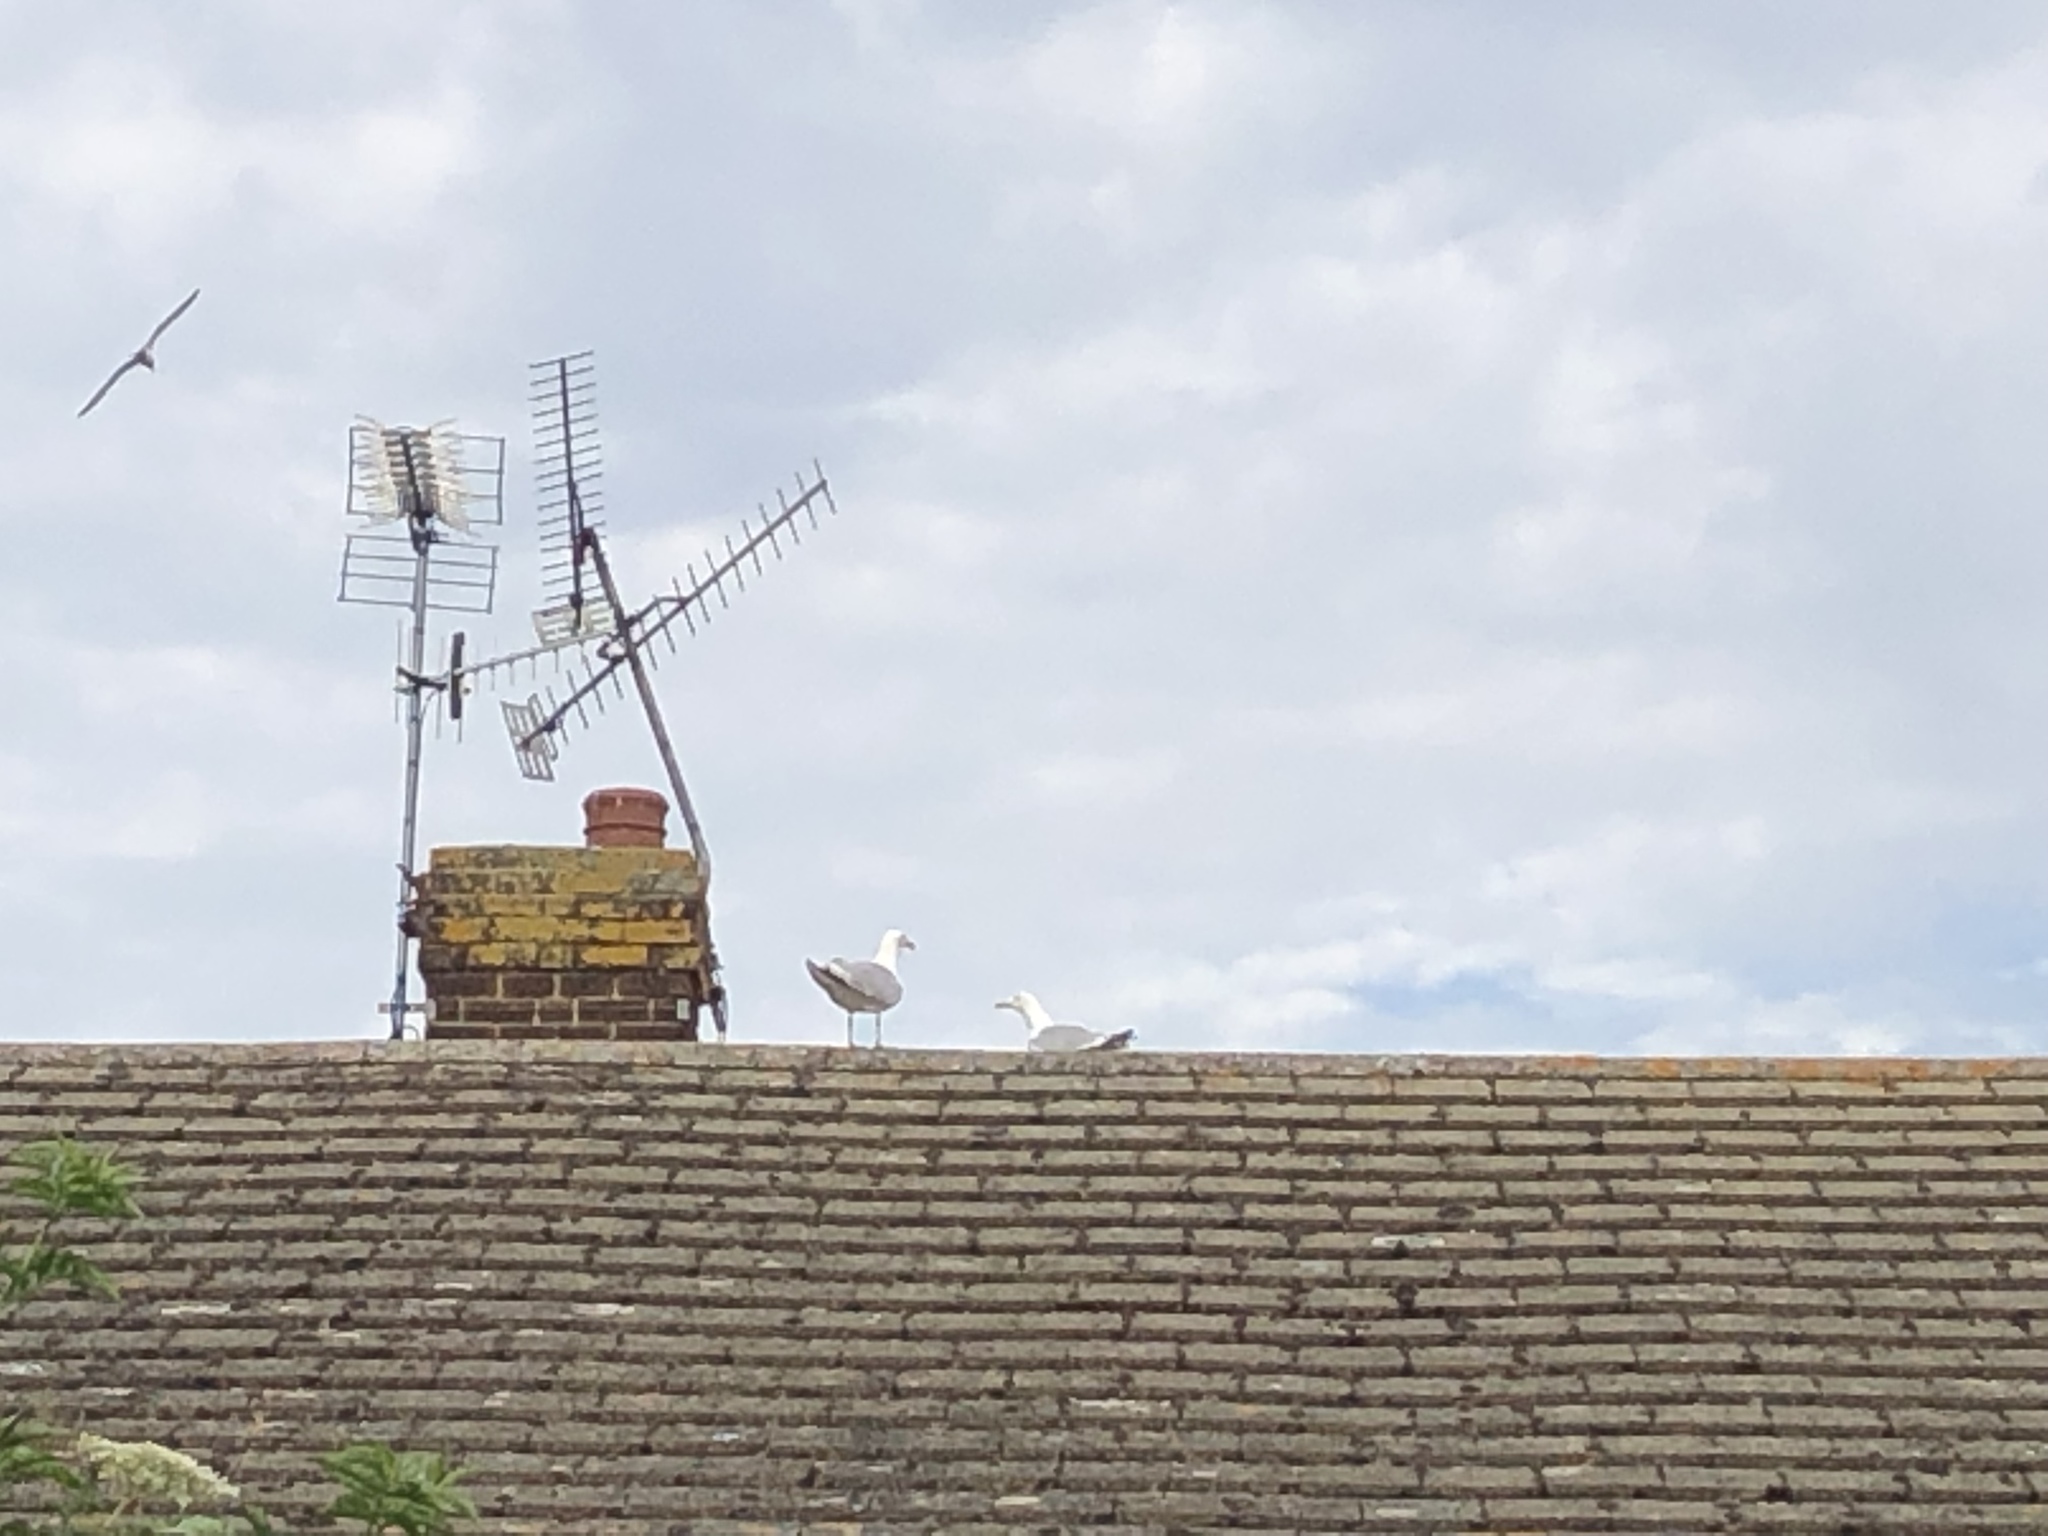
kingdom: Animalia
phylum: Chordata
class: Aves
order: Charadriiformes
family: Laridae
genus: Larus
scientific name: Larus argentatus
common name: Herring gull
